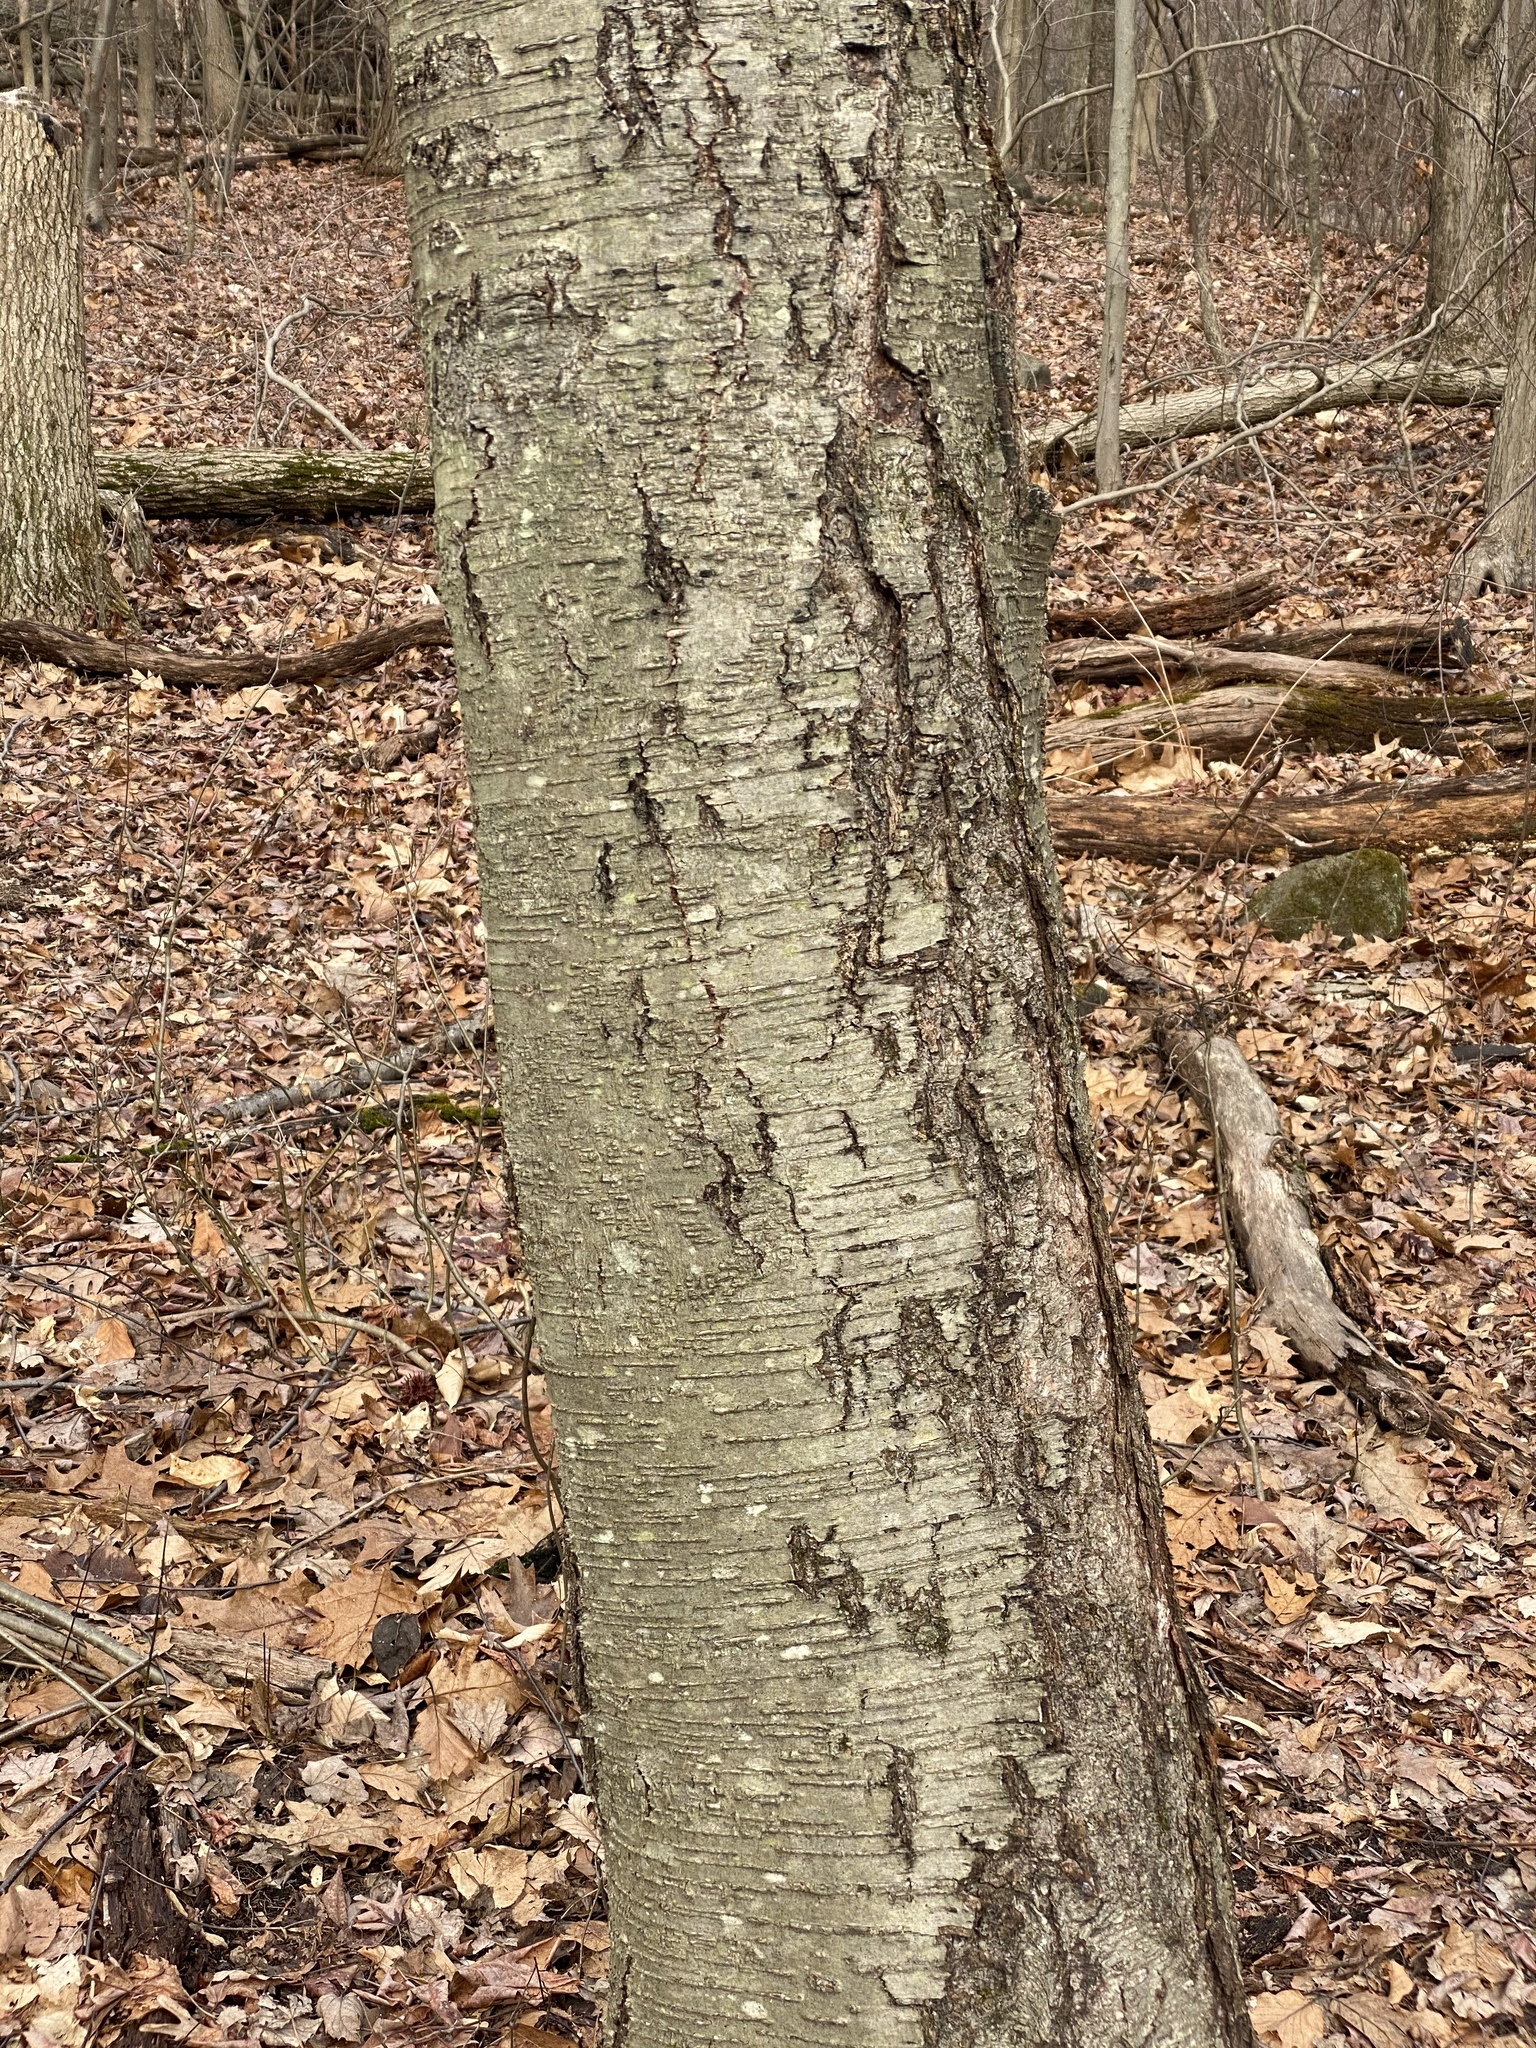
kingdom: Plantae
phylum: Tracheophyta
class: Magnoliopsida
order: Fagales
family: Betulaceae
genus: Betula
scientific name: Betula lenta
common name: Black birch
